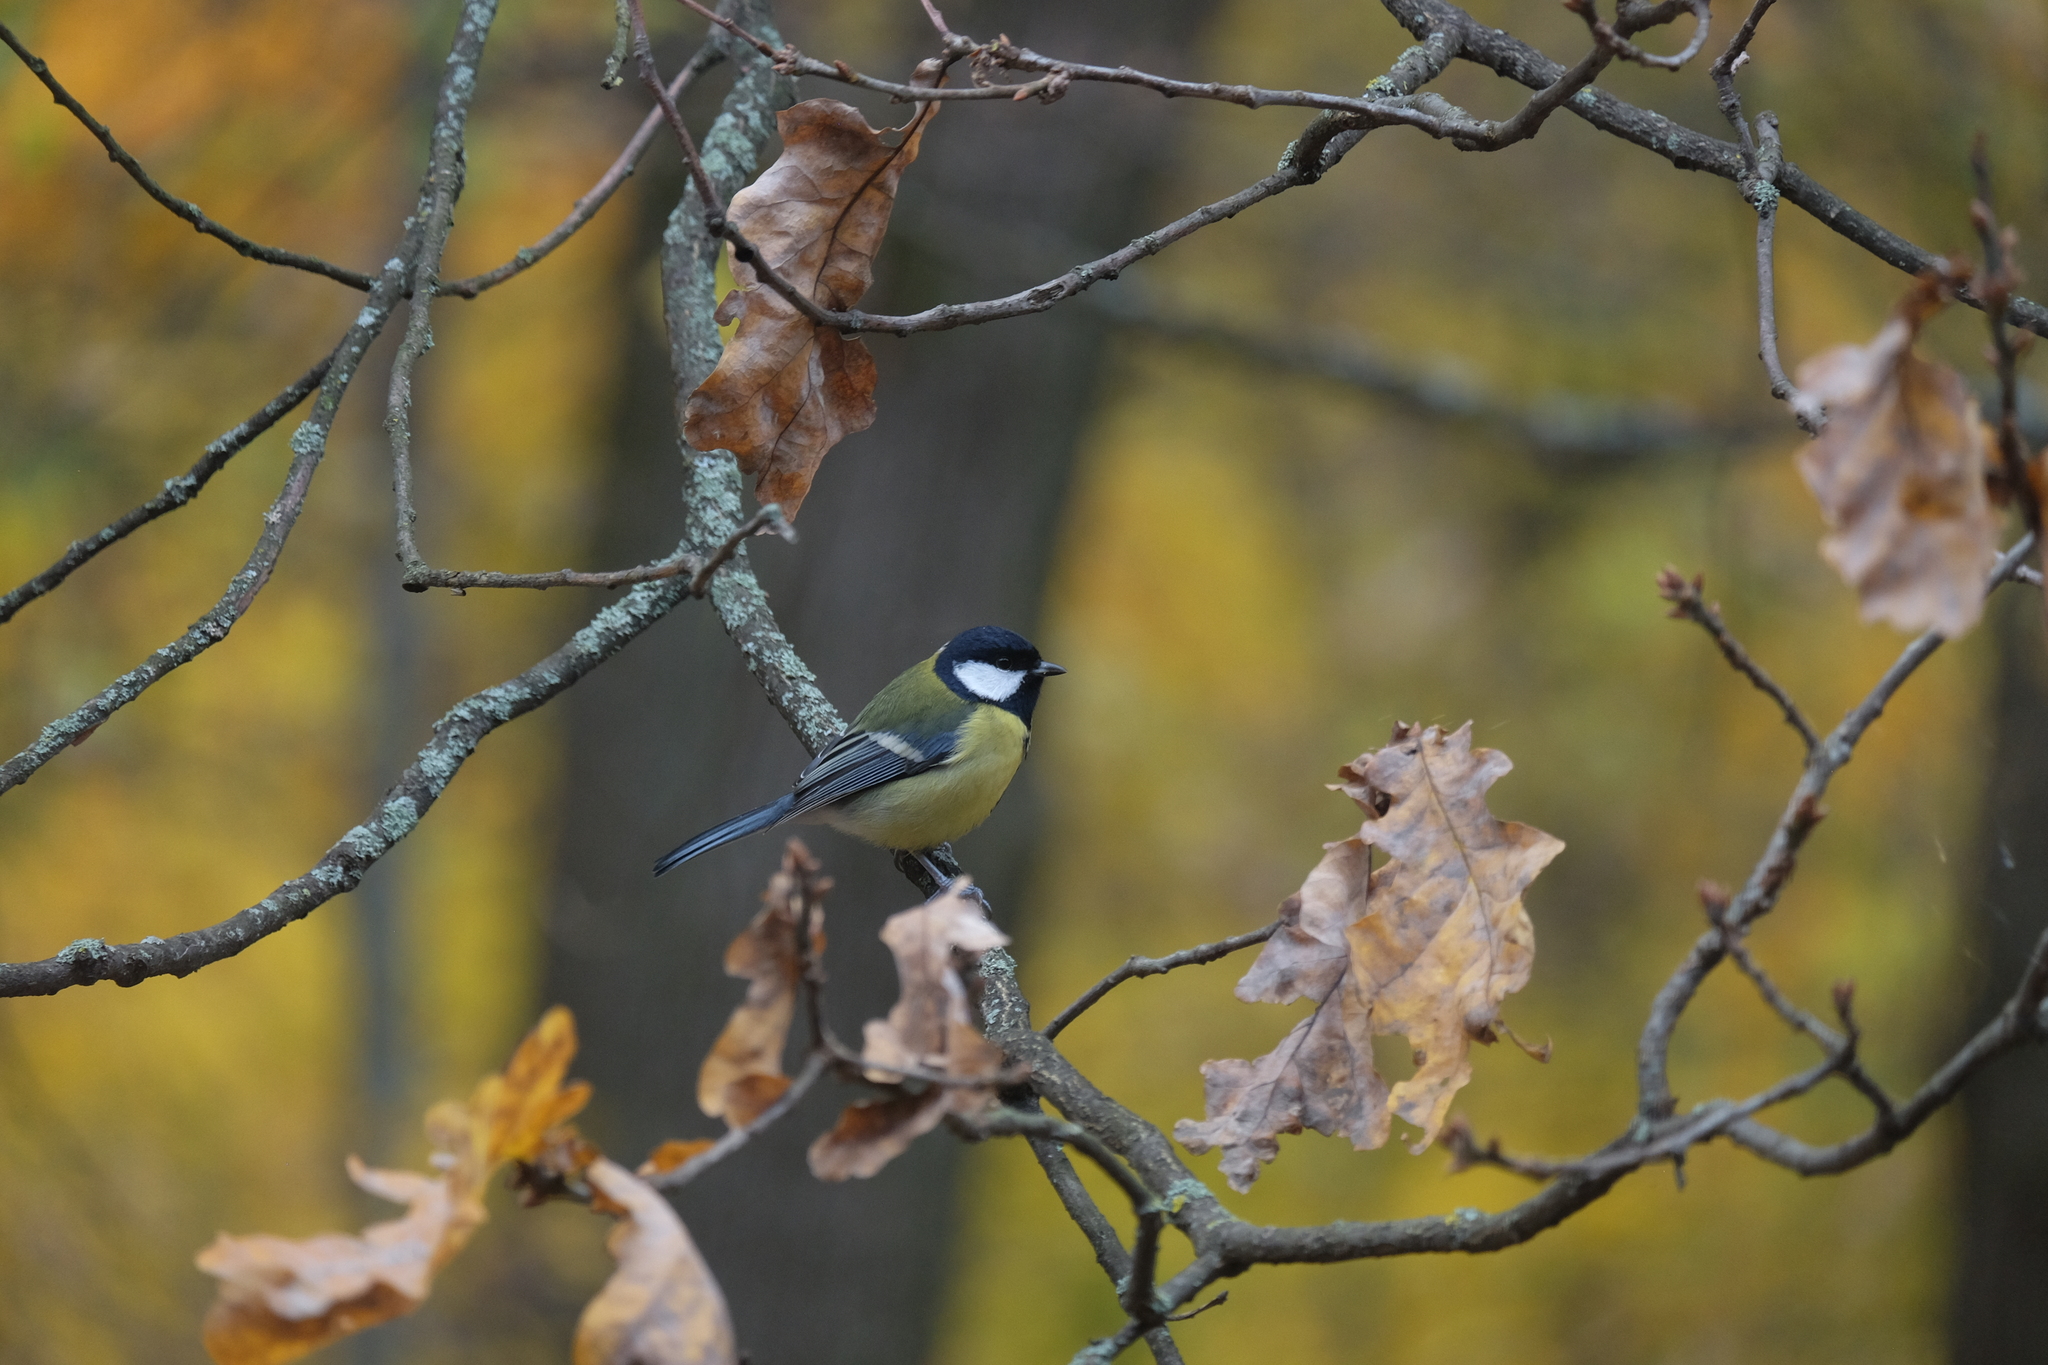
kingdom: Animalia
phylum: Chordata
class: Aves
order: Passeriformes
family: Paridae
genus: Parus
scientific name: Parus major
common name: Great tit
